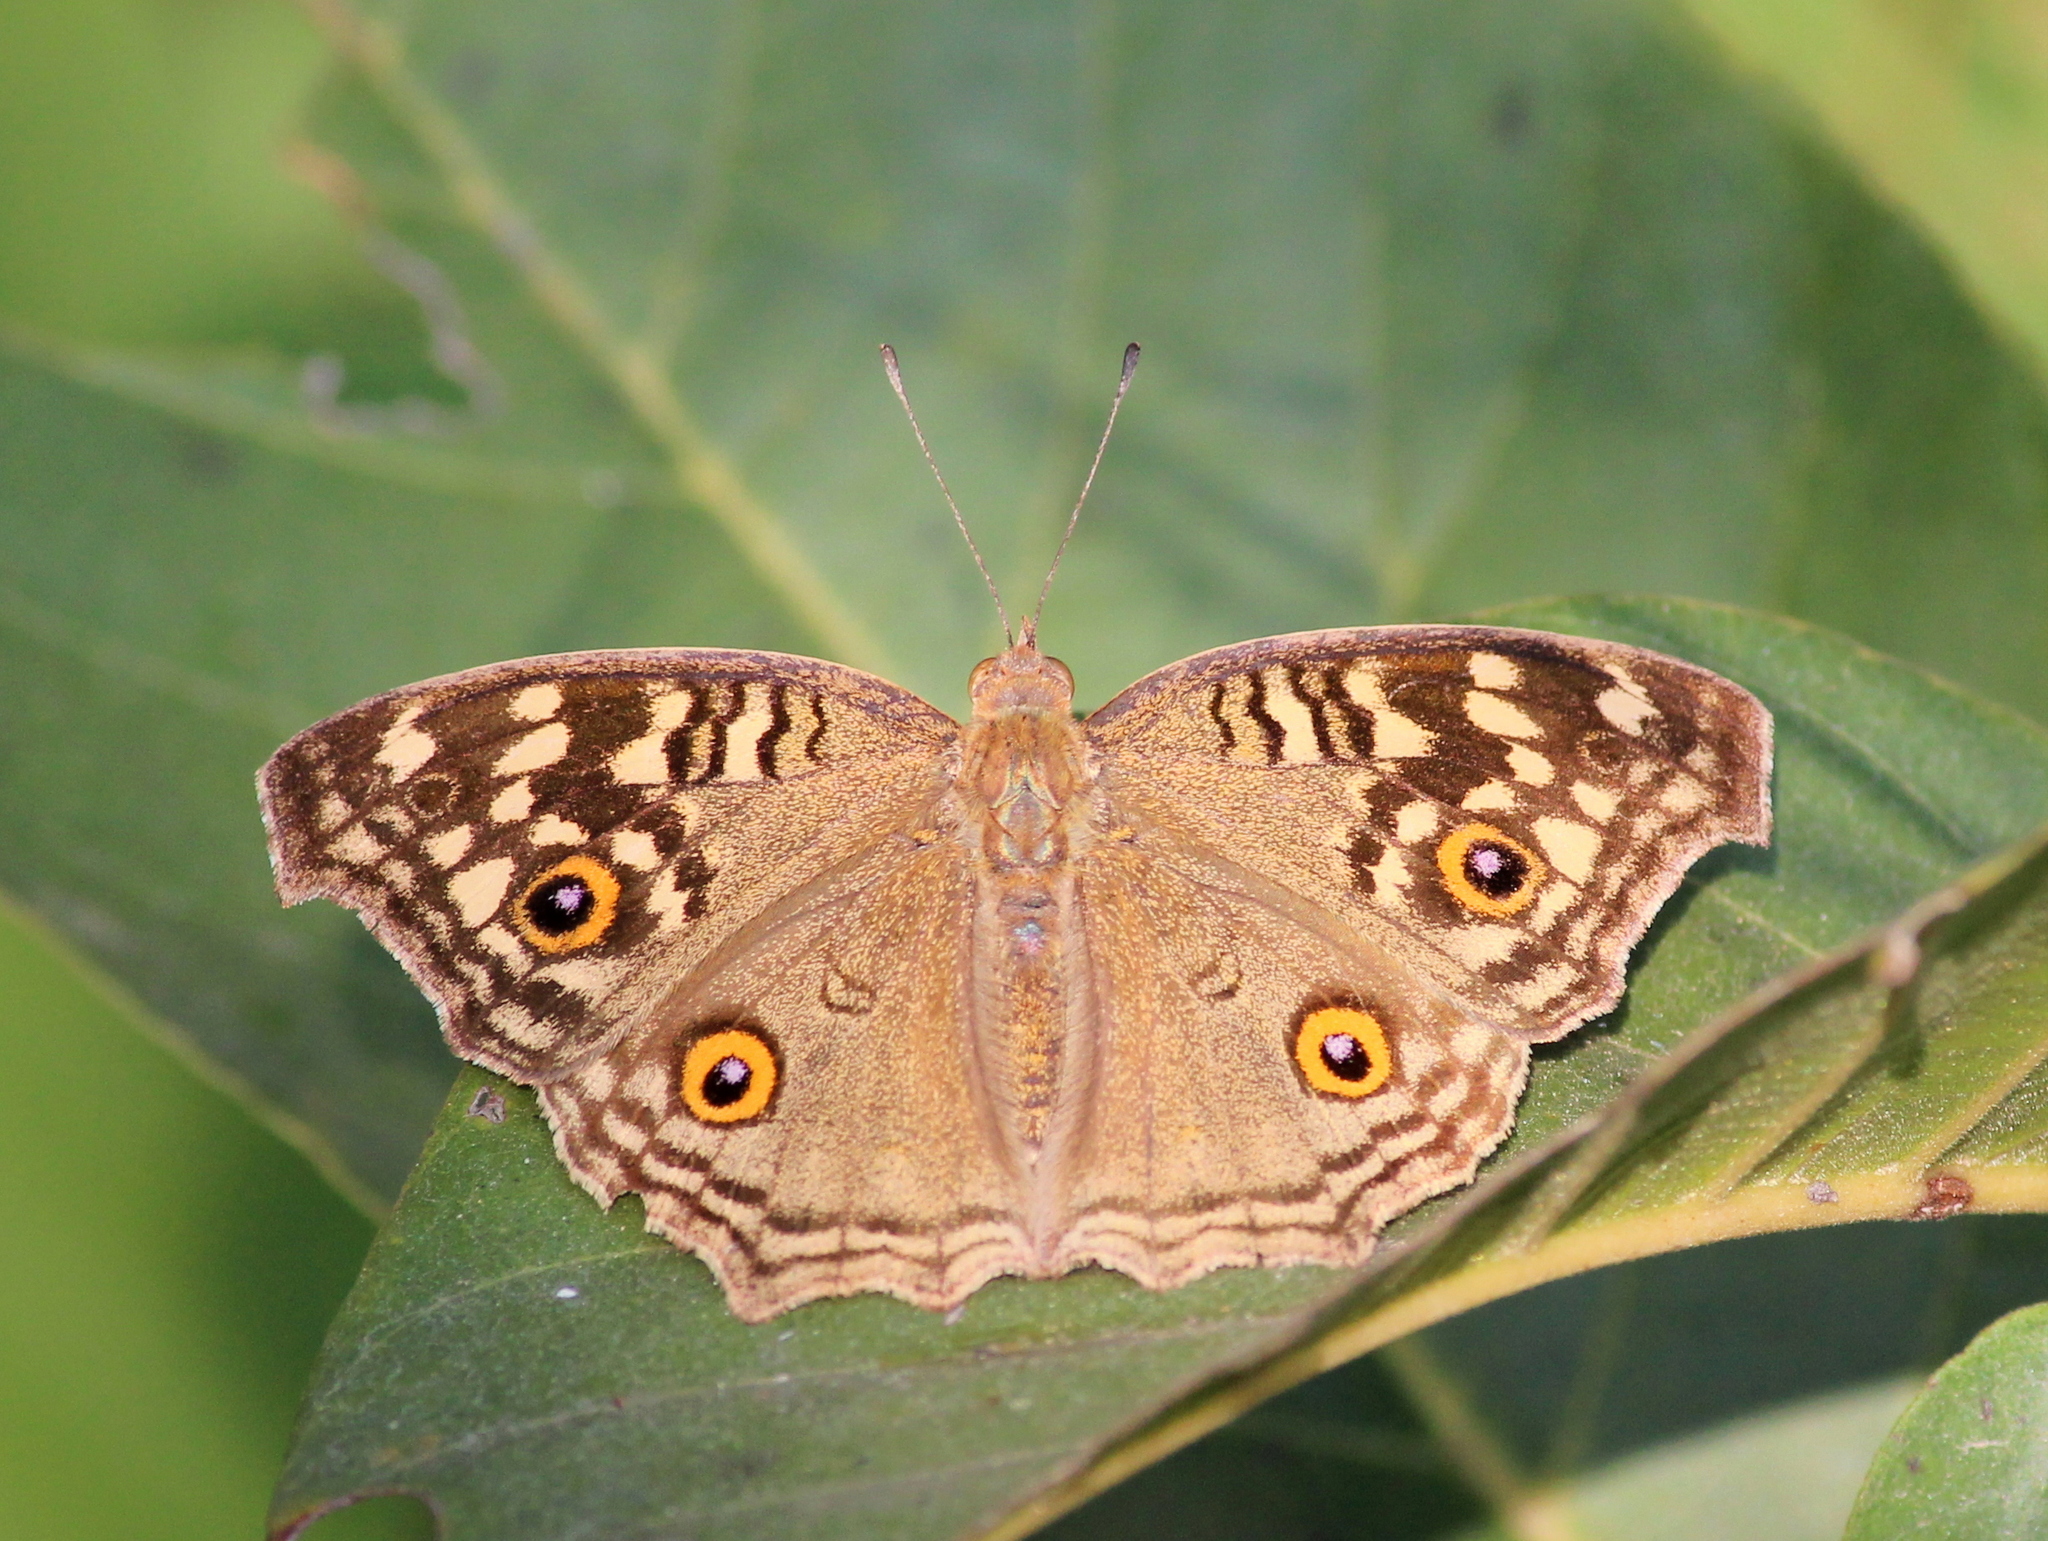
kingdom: Animalia
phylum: Arthropoda
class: Insecta
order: Lepidoptera
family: Nymphalidae
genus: Junonia
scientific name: Junonia lemonias
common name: Lemon pansy
